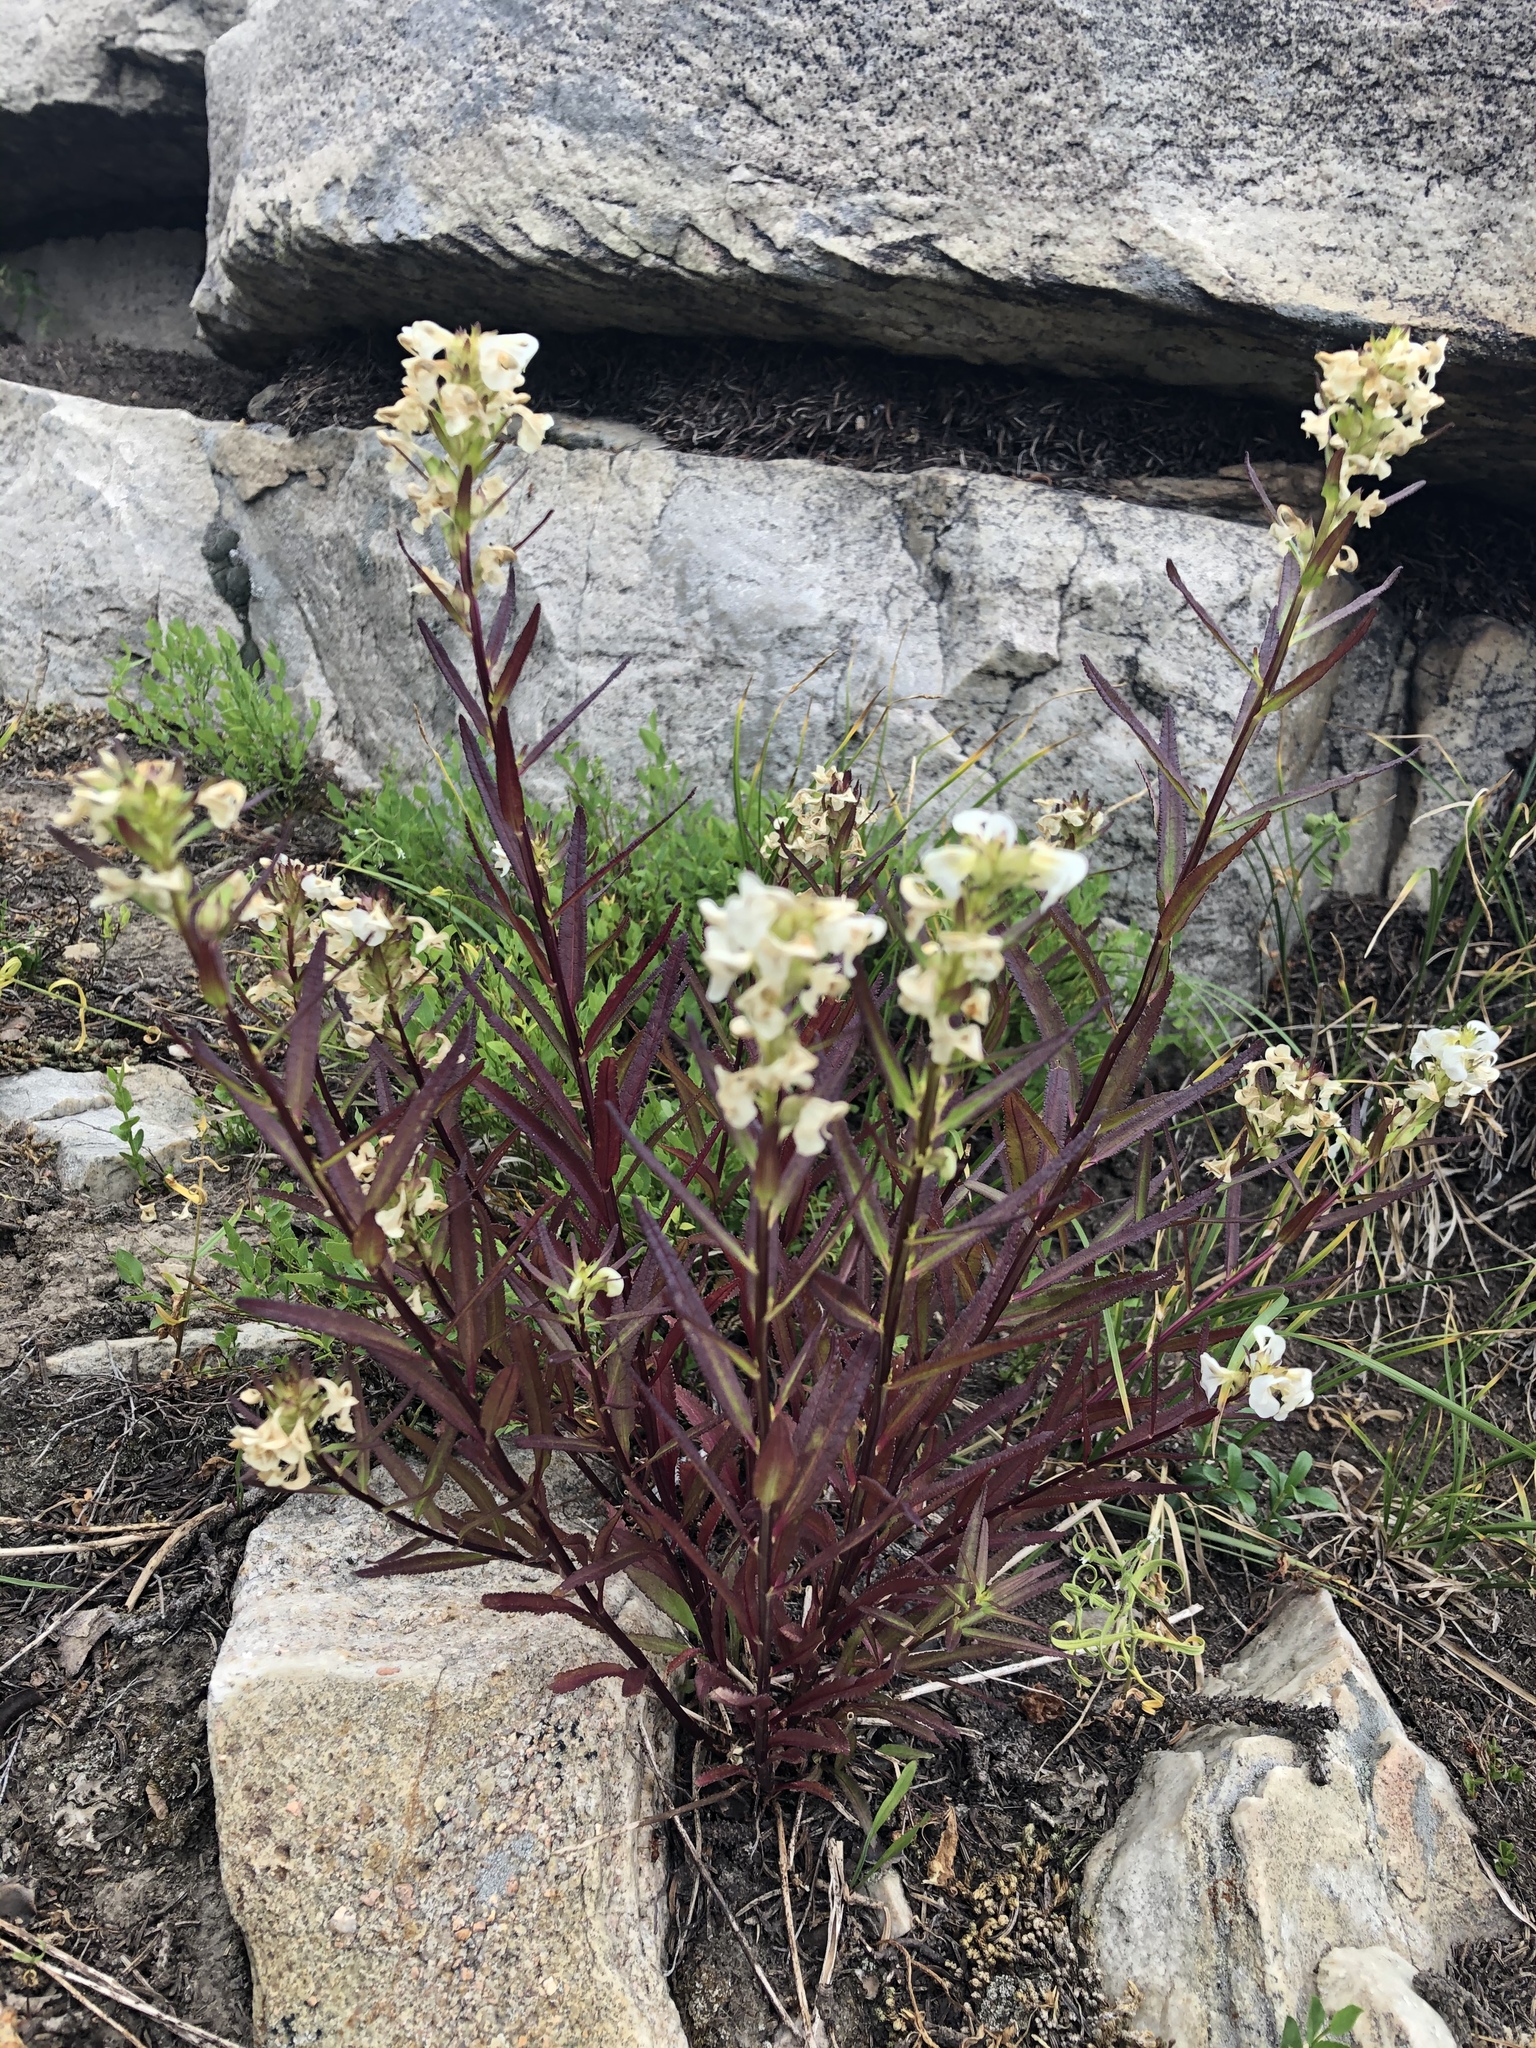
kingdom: Plantae
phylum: Tracheophyta
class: Magnoliopsida
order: Lamiales
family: Orobanchaceae
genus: Pedicularis
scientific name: Pedicularis racemosa
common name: Leafy lousewort
